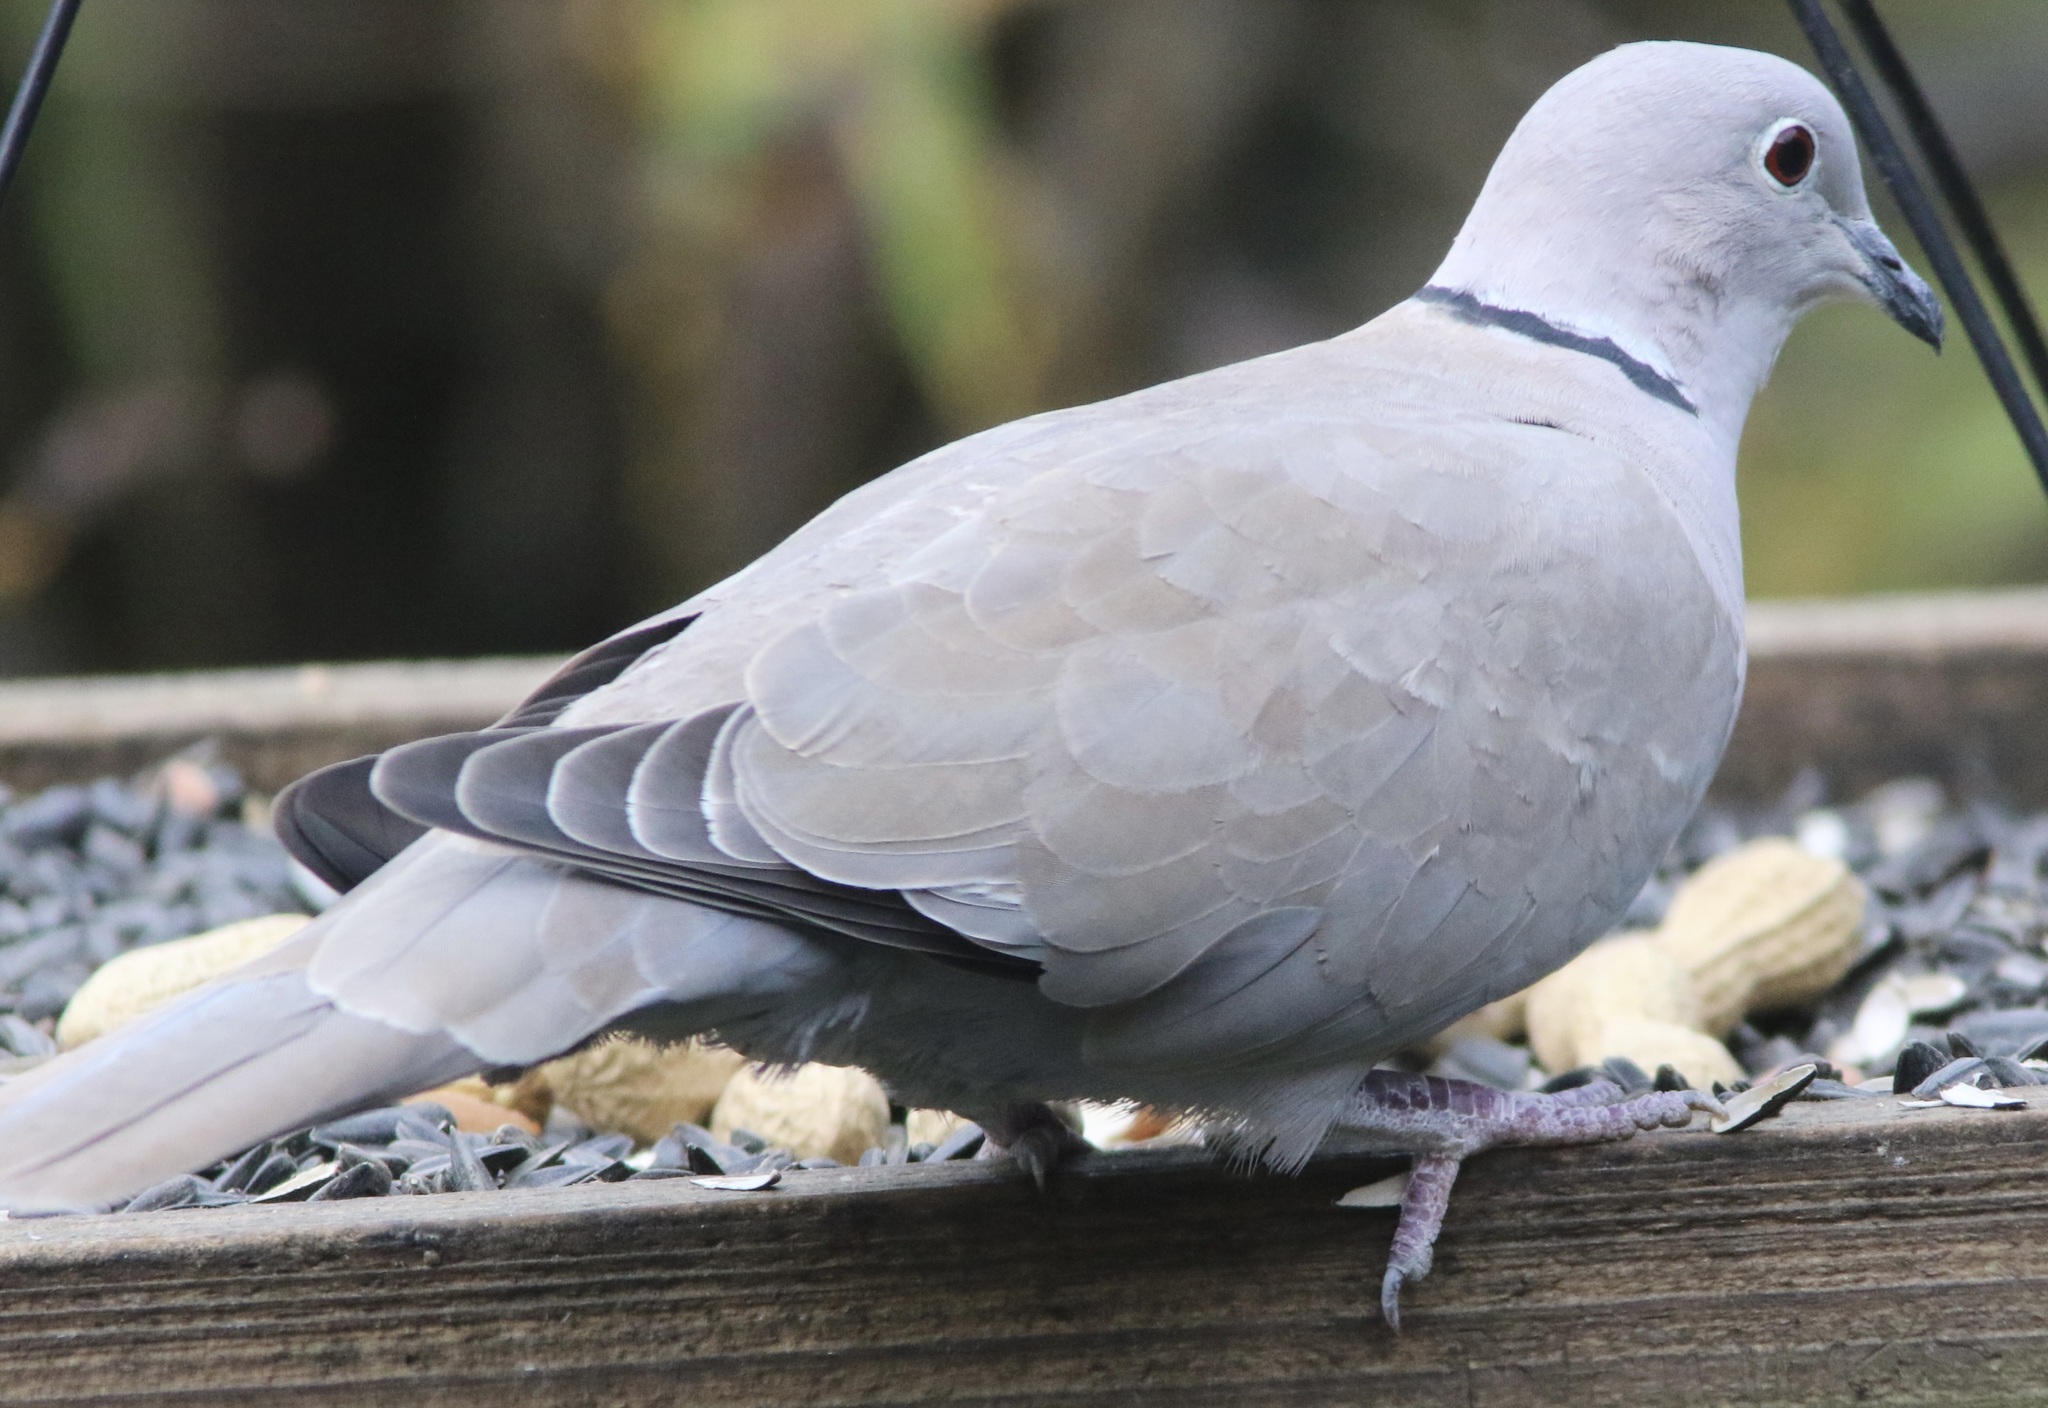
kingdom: Animalia
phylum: Chordata
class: Aves
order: Columbiformes
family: Columbidae
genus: Streptopelia
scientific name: Streptopelia decaocto
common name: Eurasian collared dove
